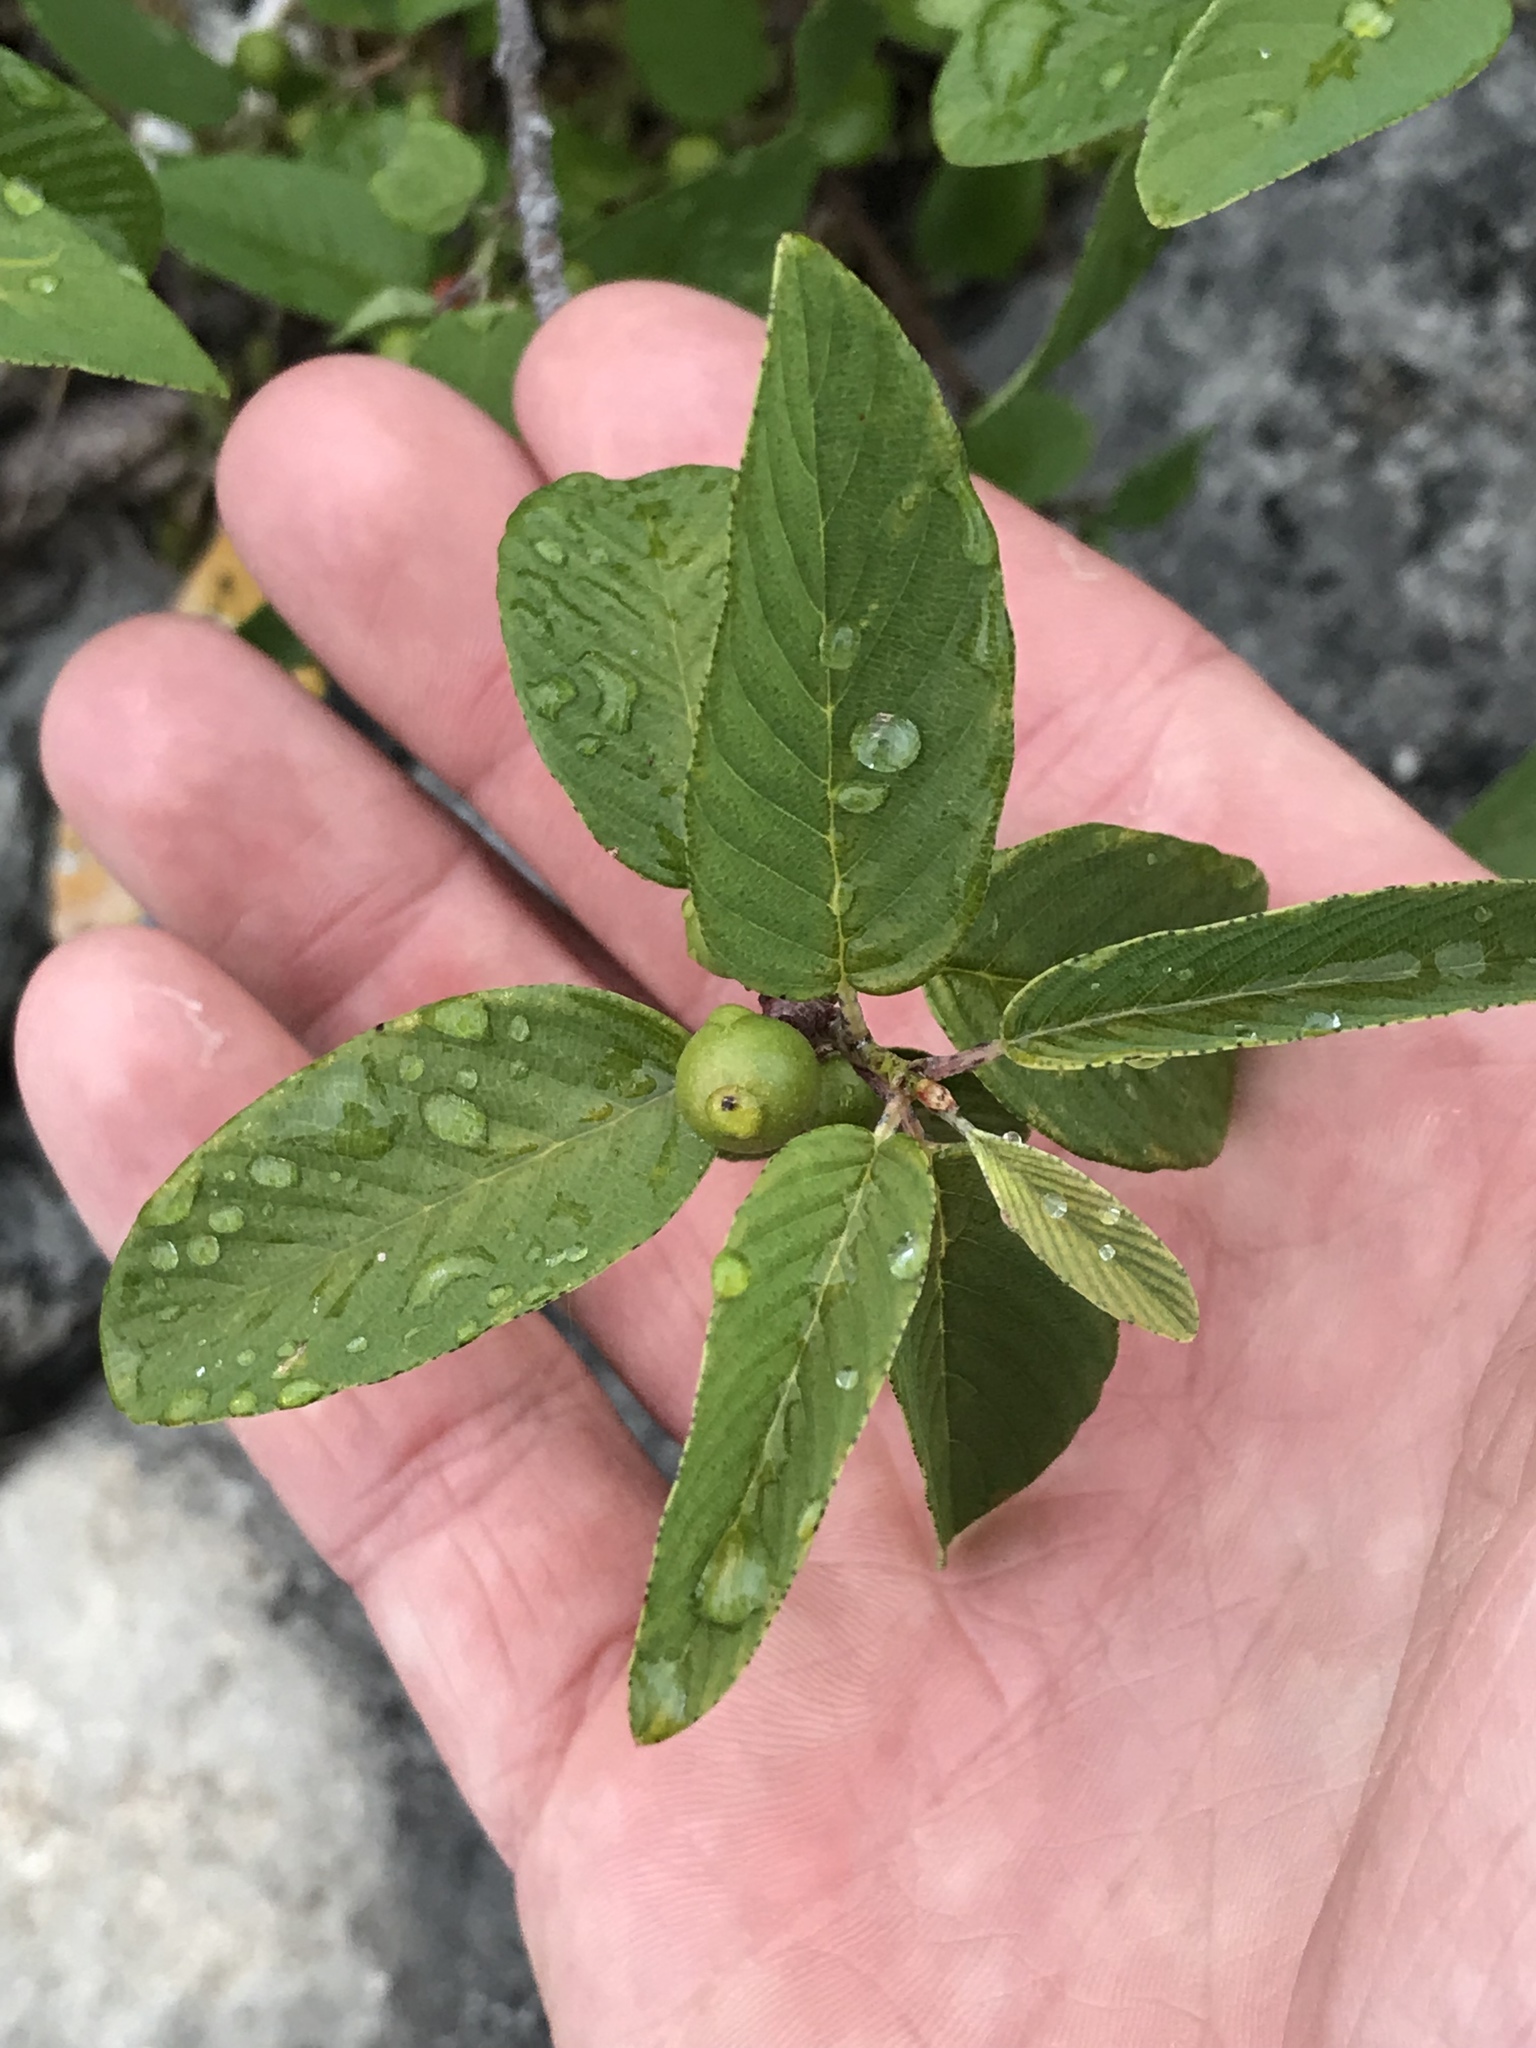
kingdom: Plantae
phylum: Tracheophyta
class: Magnoliopsida
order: Rosales
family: Rhamnaceae
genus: Karwinskia
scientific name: Karwinskia humboldtiana
